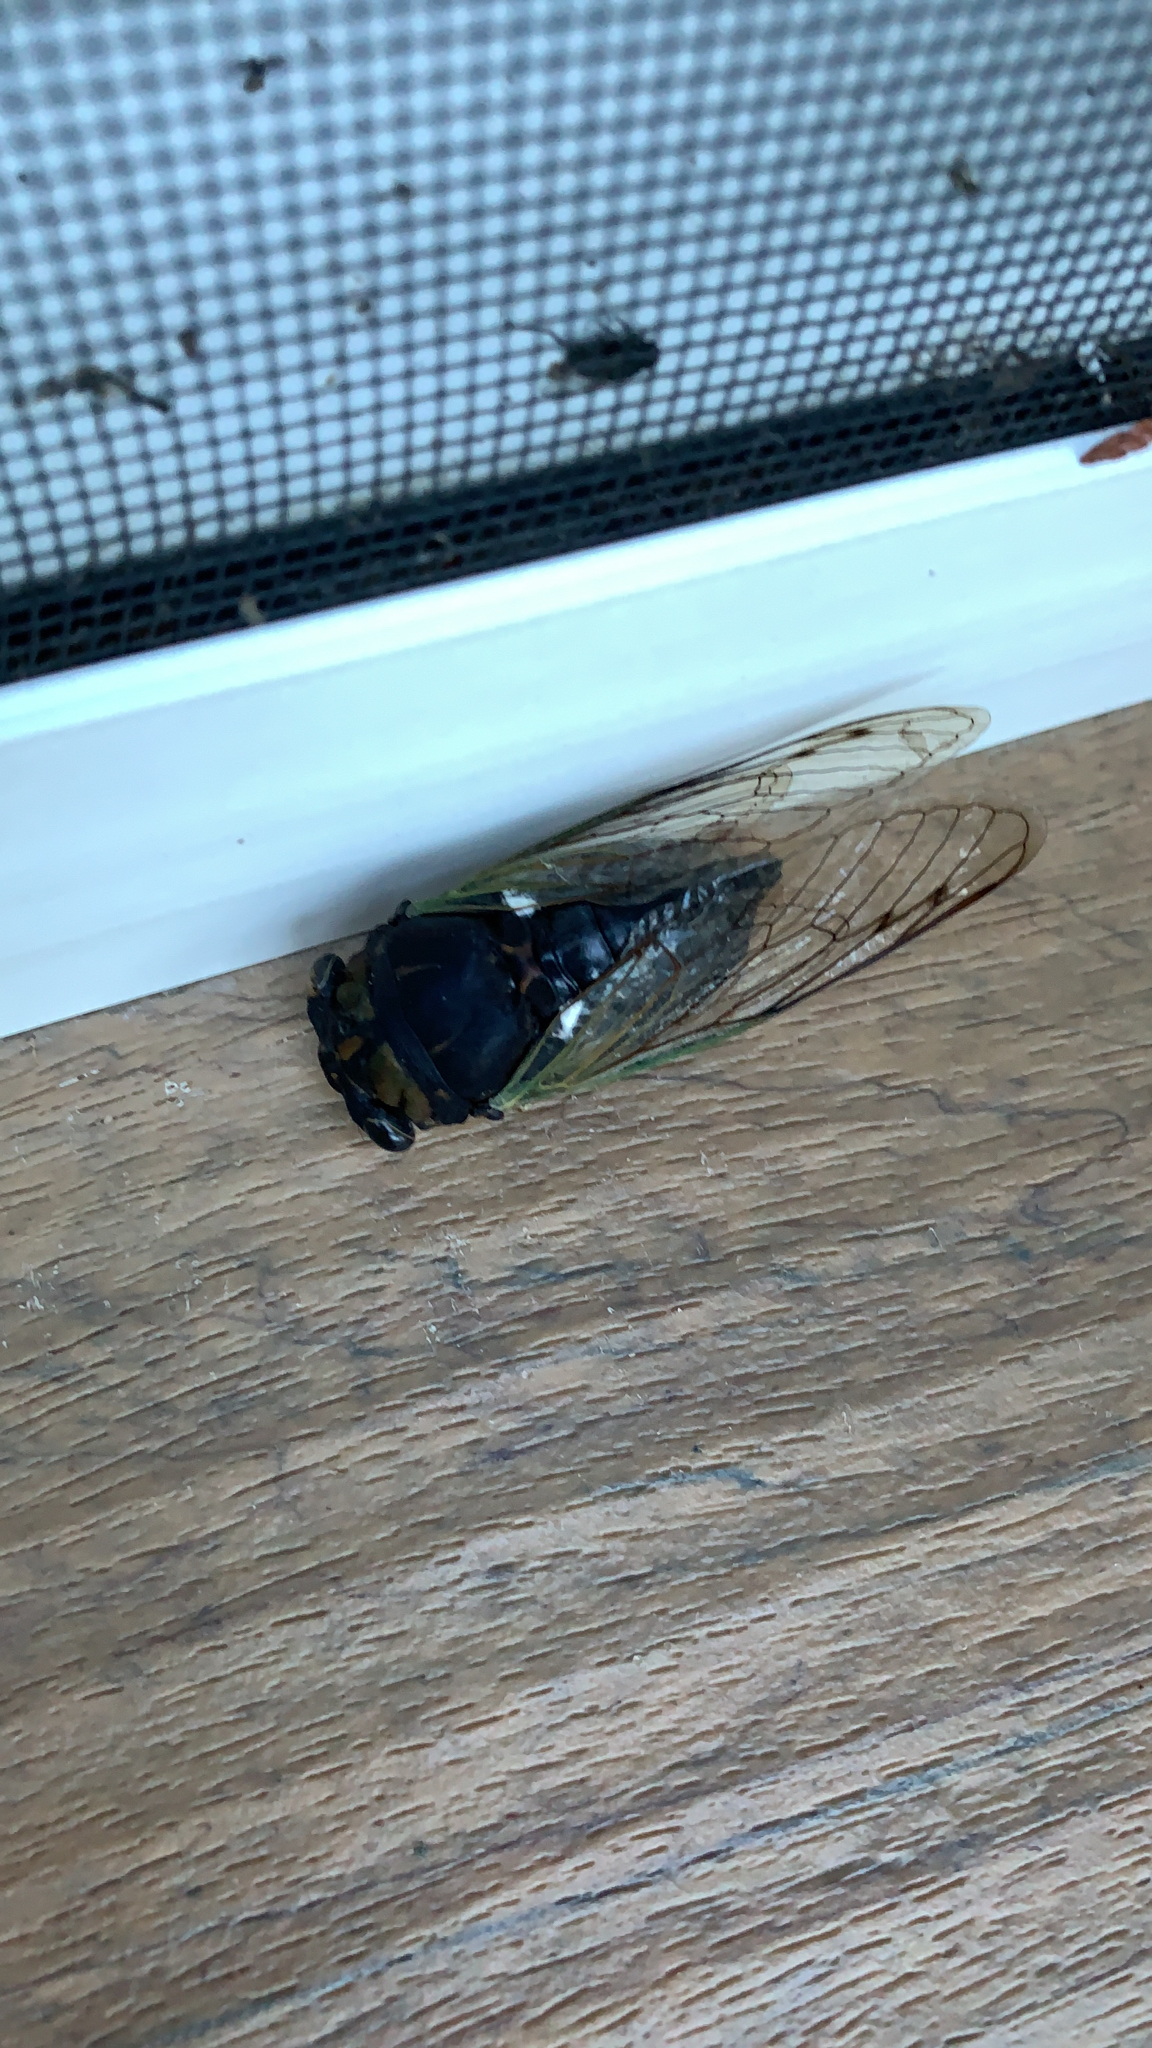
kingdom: Animalia
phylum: Arthropoda
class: Insecta
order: Hemiptera
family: Cicadidae
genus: Neotibicen
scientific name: Neotibicen tibicen
